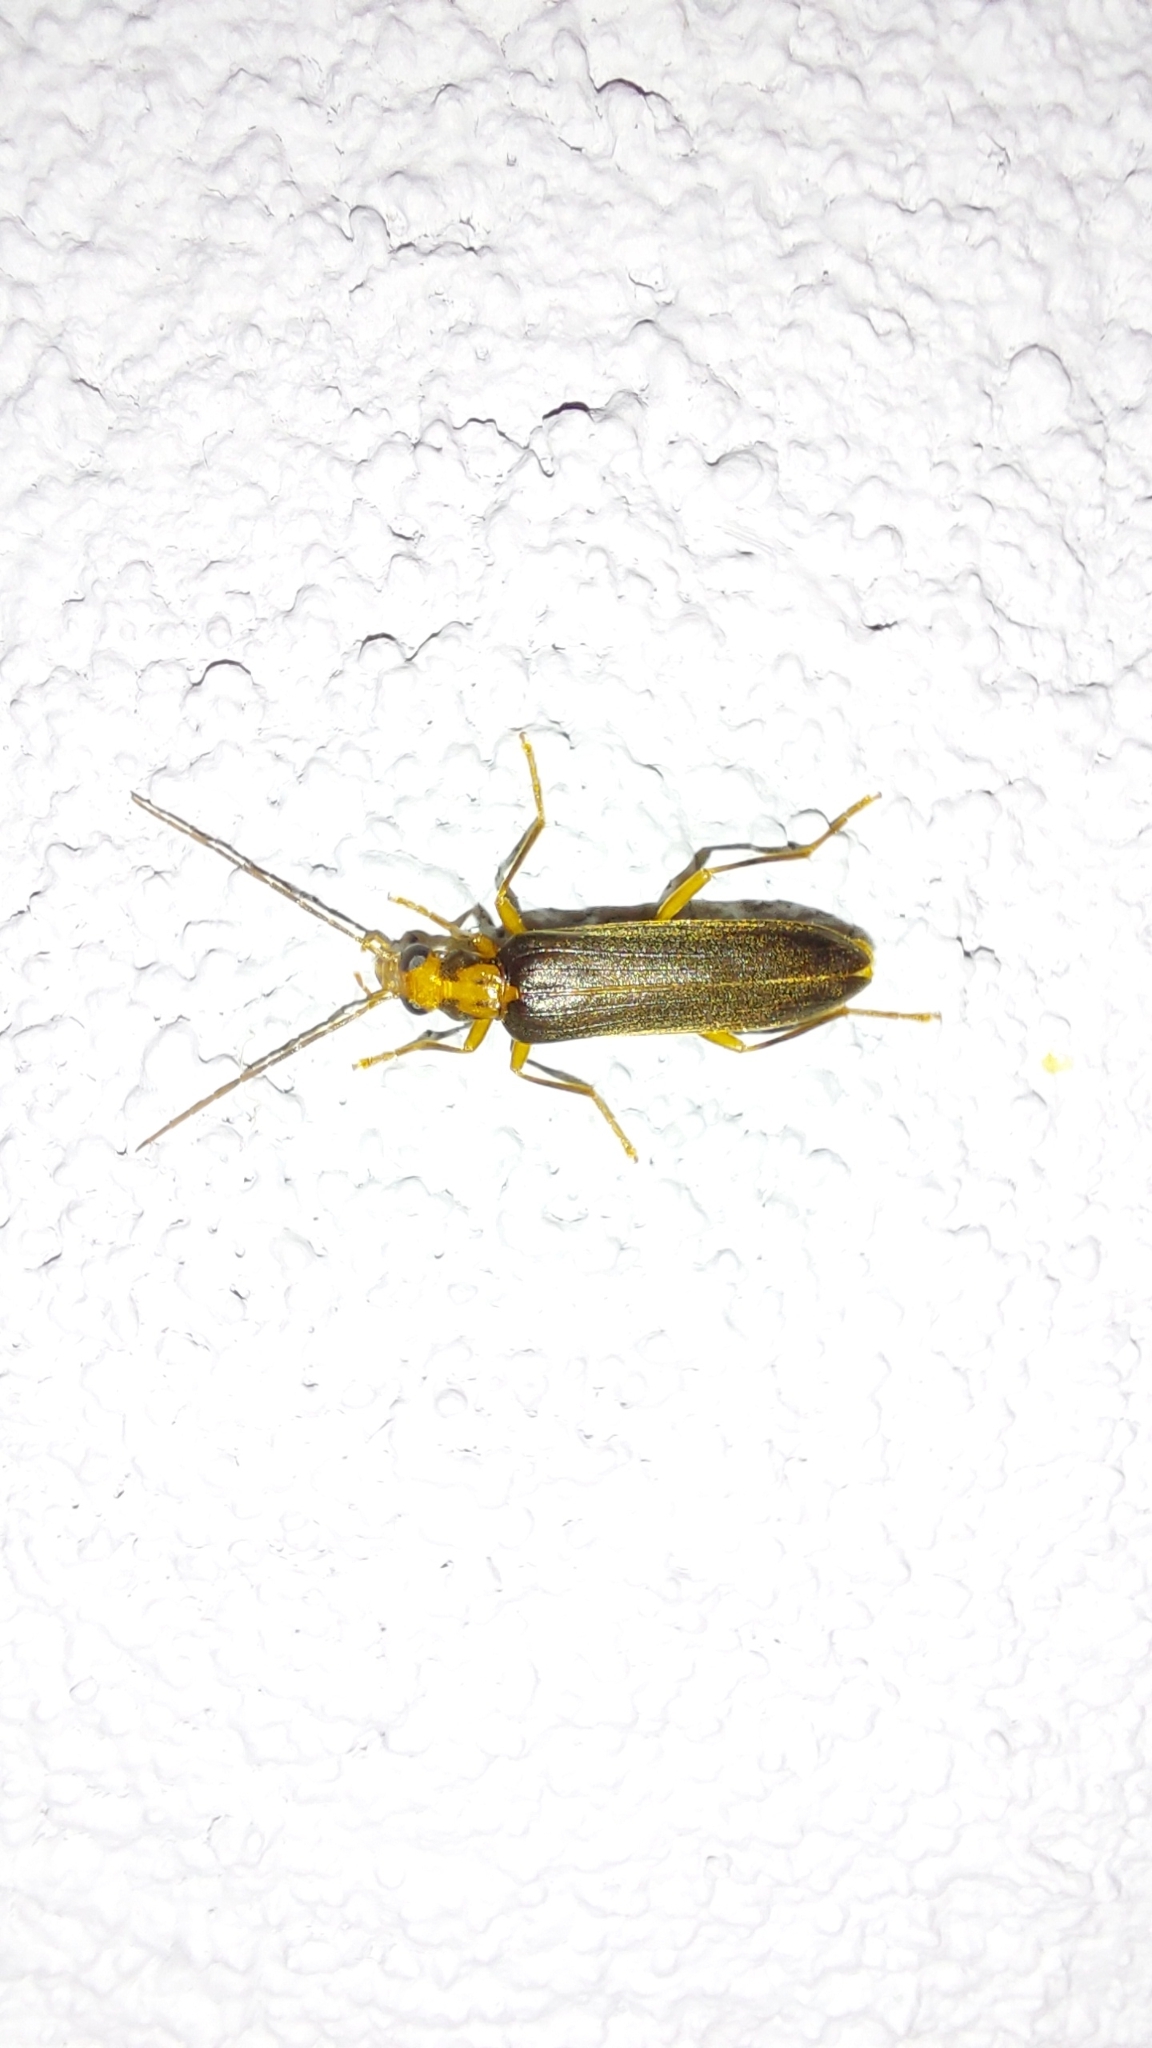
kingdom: Animalia
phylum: Arthropoda
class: Insecta
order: Coleoptera
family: Oedemeridae
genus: Nacerdes
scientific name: Nacerdes carniolica
